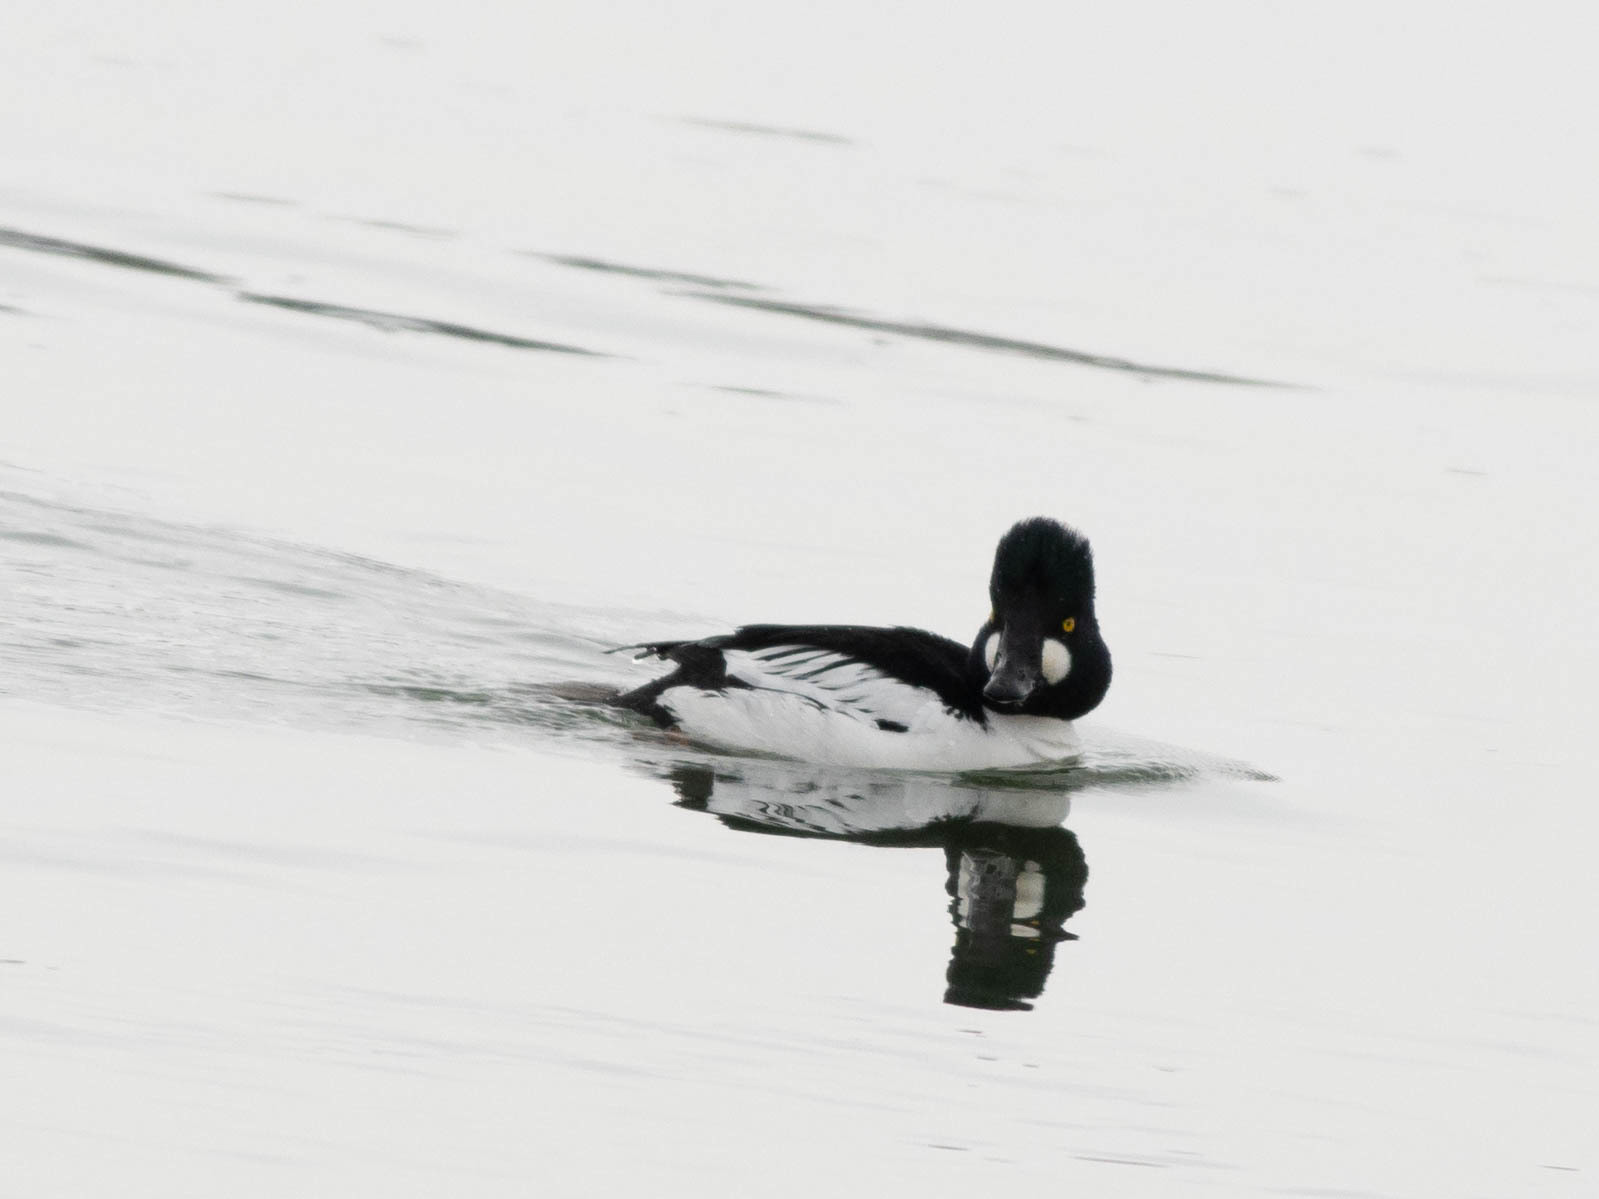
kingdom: Animalia
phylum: Chordata
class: Aves
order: Anseriformes
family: Anatidae
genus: Bucephala
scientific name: Bucephala clangula
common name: Common goldeneye
